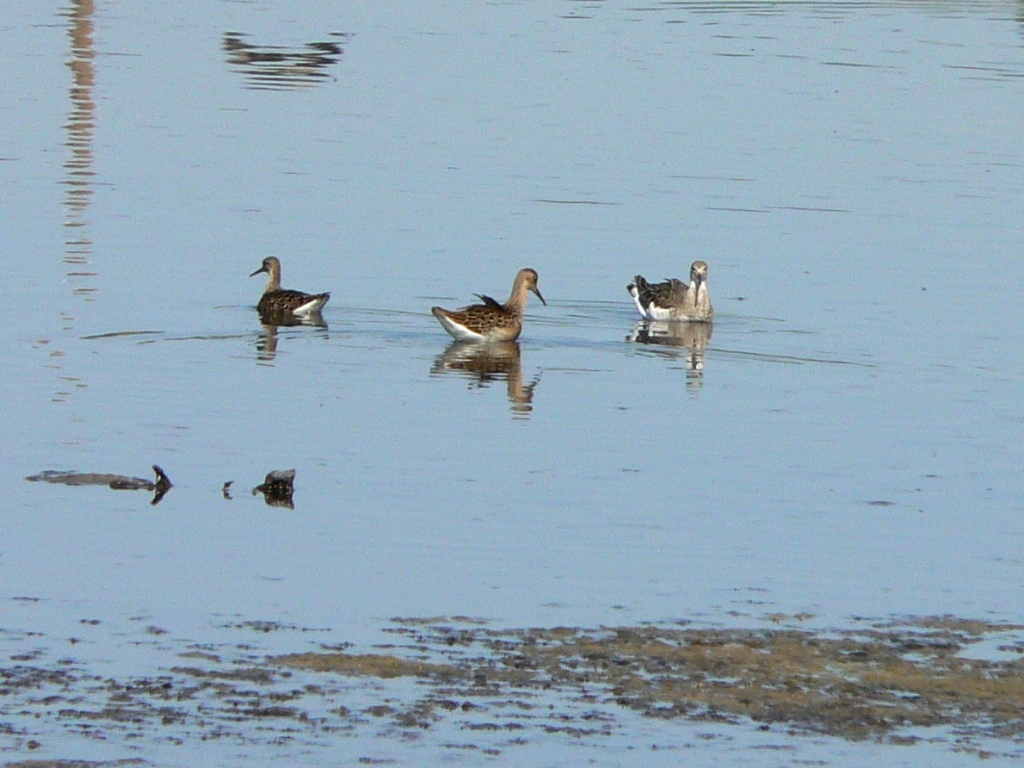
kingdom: Animalia
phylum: Chordata
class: Aves
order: Charadriiformes
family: Scolopacidae
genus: Calidris
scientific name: Calidris pugnax
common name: Ruff
